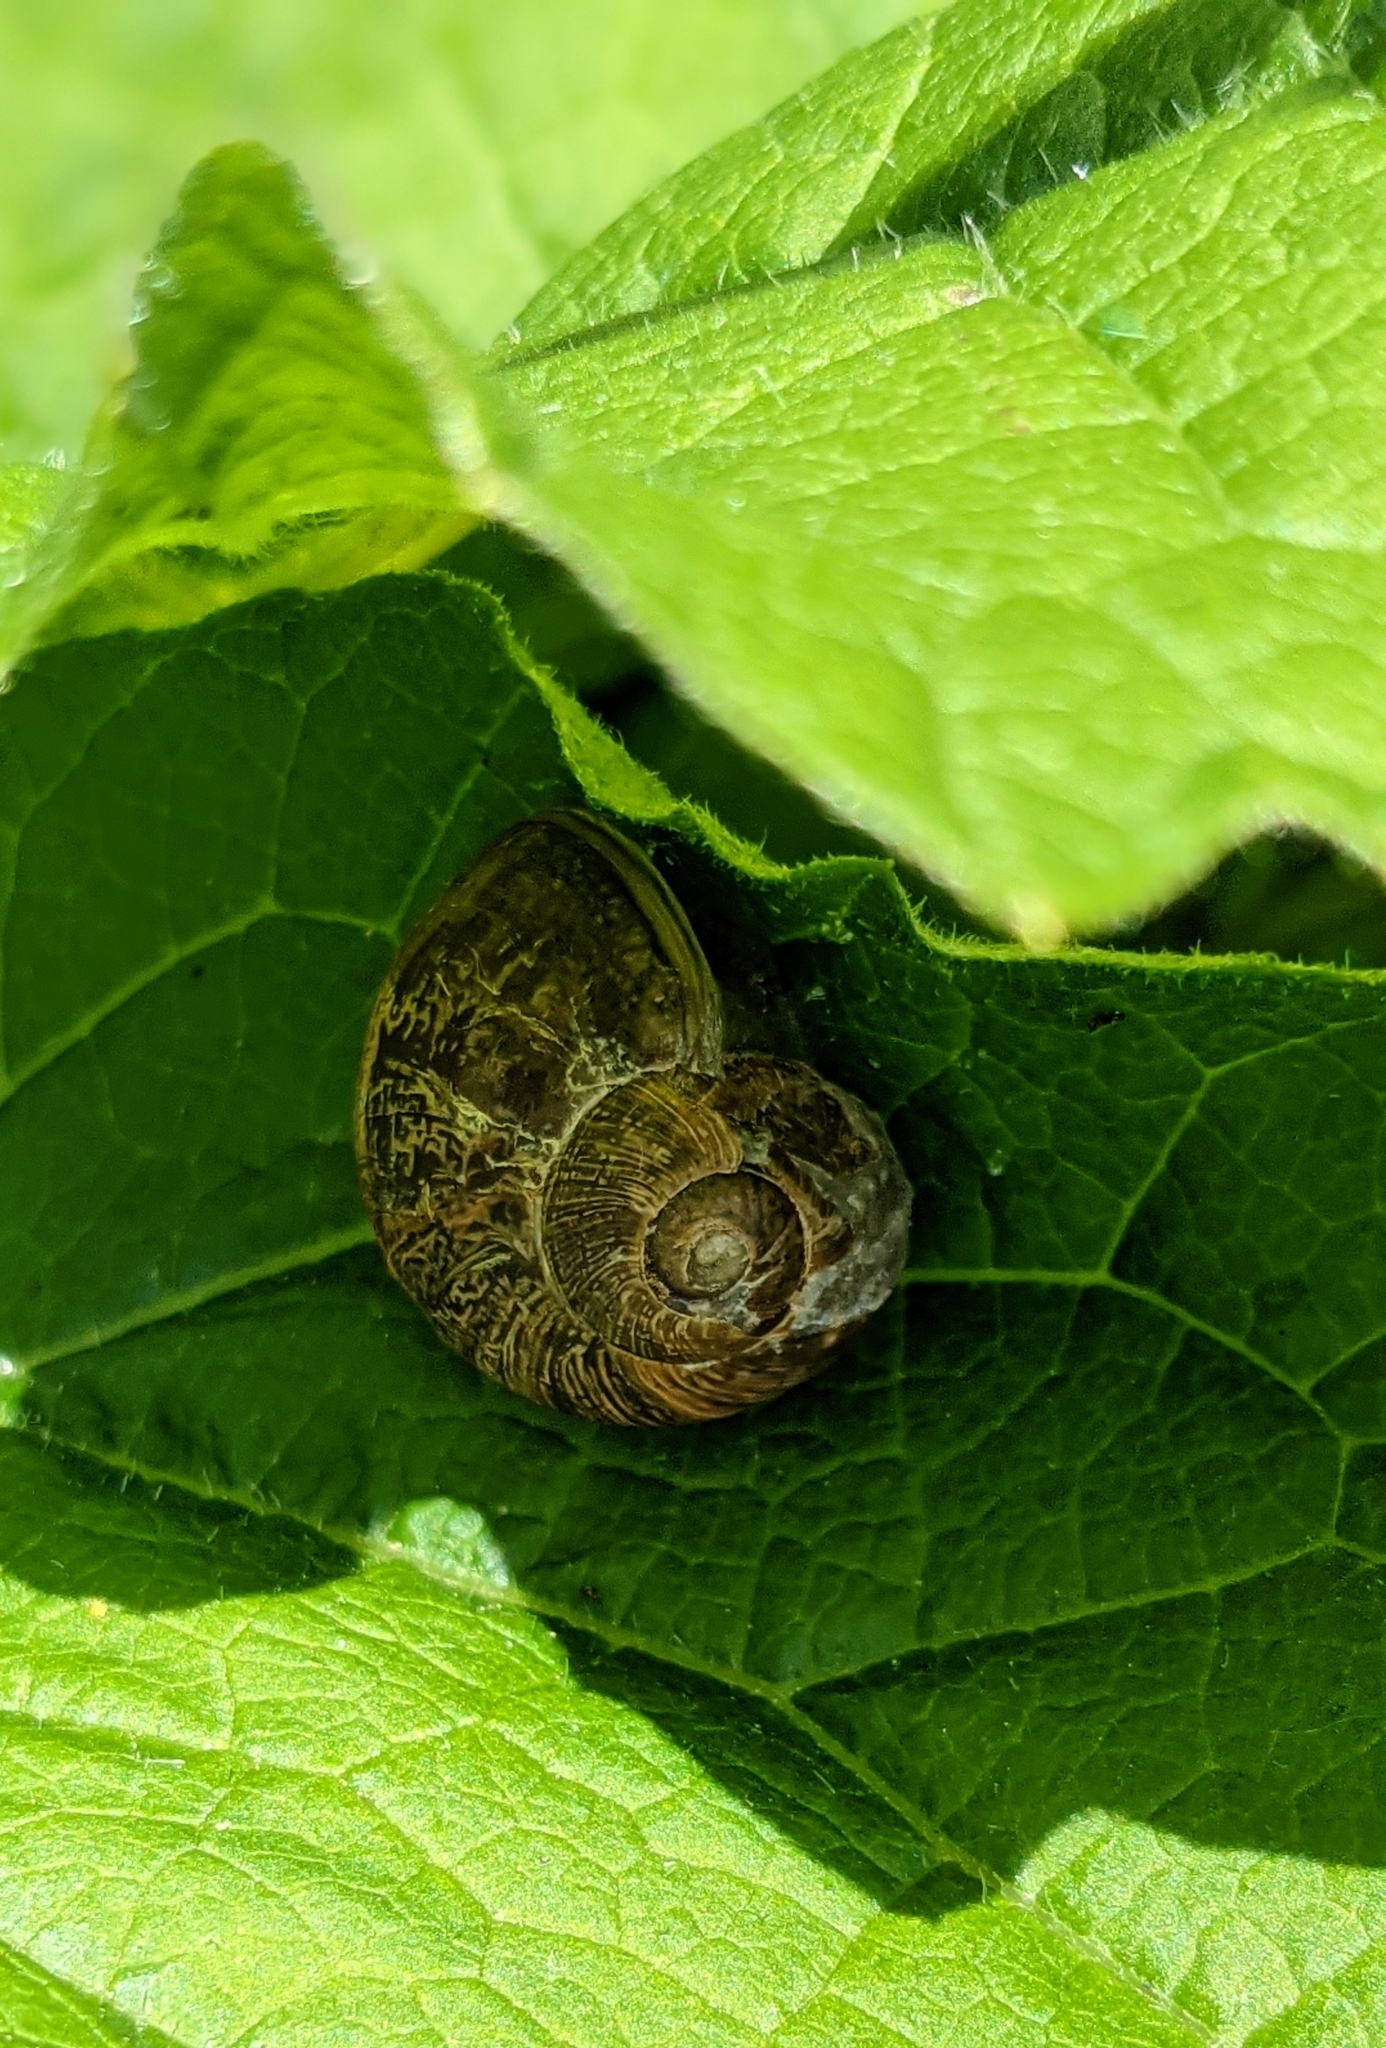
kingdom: Animalia
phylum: Mollusca
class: Gastropoda
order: Stylommatophora
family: Helicidae
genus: Cornu
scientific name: Cornu aspersum
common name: Brown garden snail
